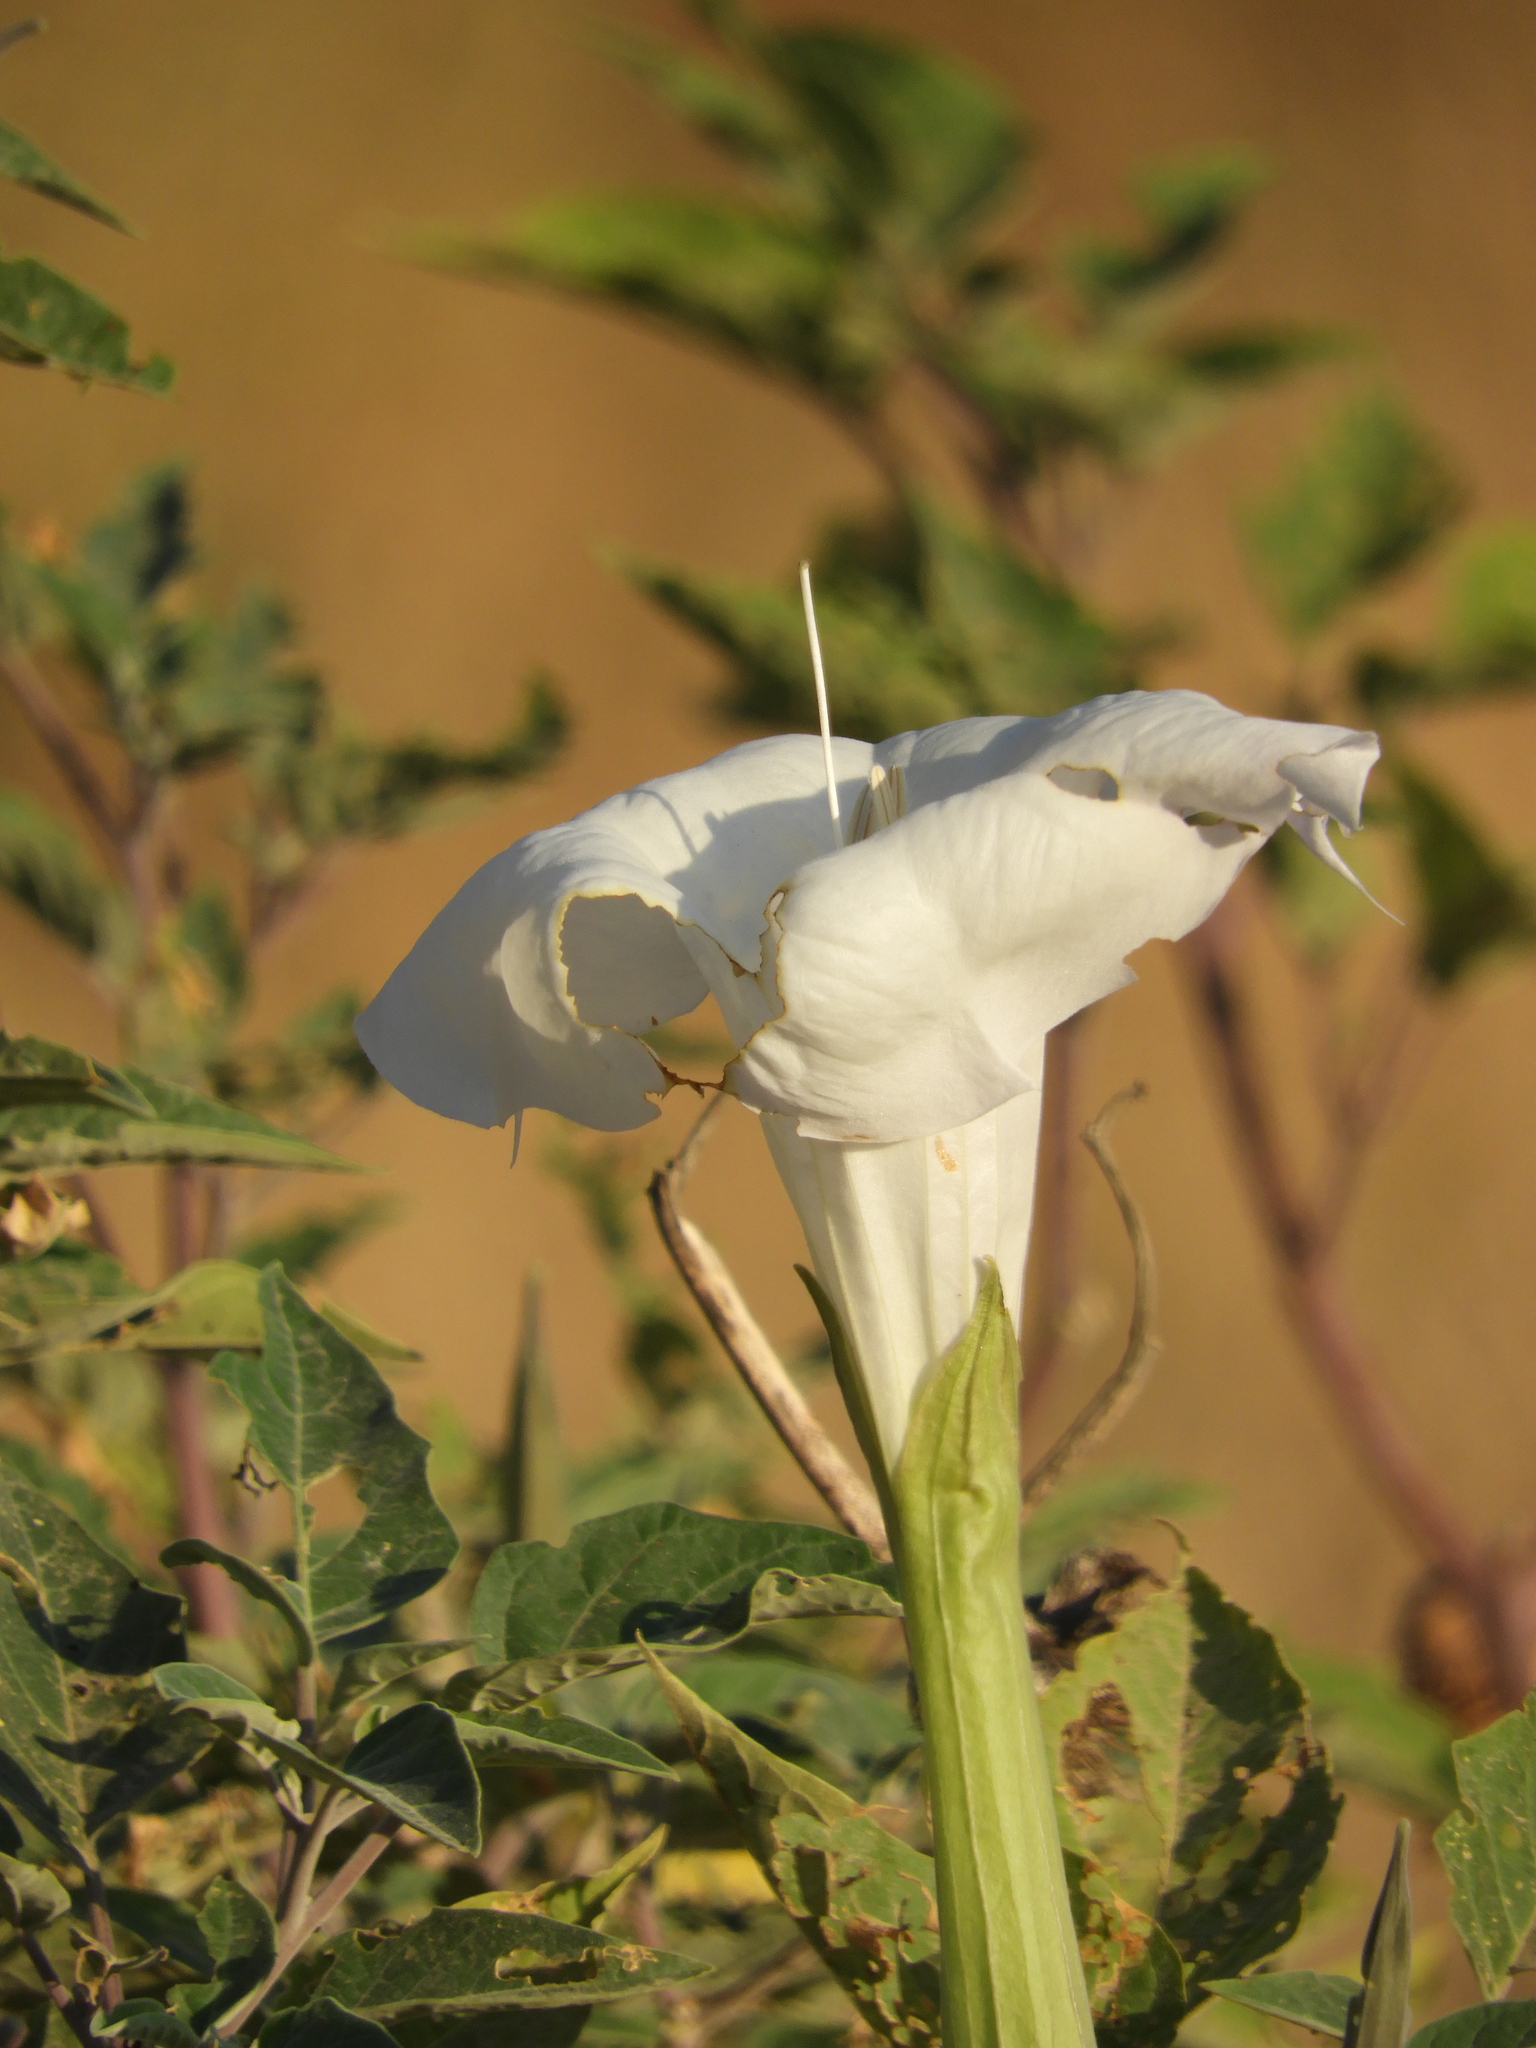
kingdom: Plantae
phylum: Tracheophyta
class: Magnoliopsida
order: Solanales
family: Solanaceae
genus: Datura
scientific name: Datura wrightii
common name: Sacred thorn-apple
